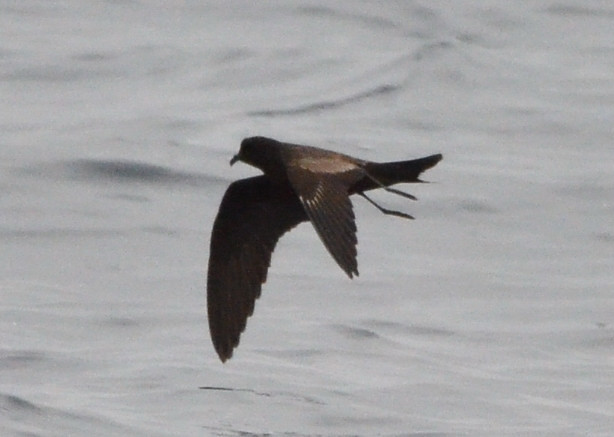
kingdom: Animalia
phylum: Chordata
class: Aves
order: Procellariiformes
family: Hydrobatidae
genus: Hydrobates
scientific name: Hydrobates melania
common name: Black storm petrel
